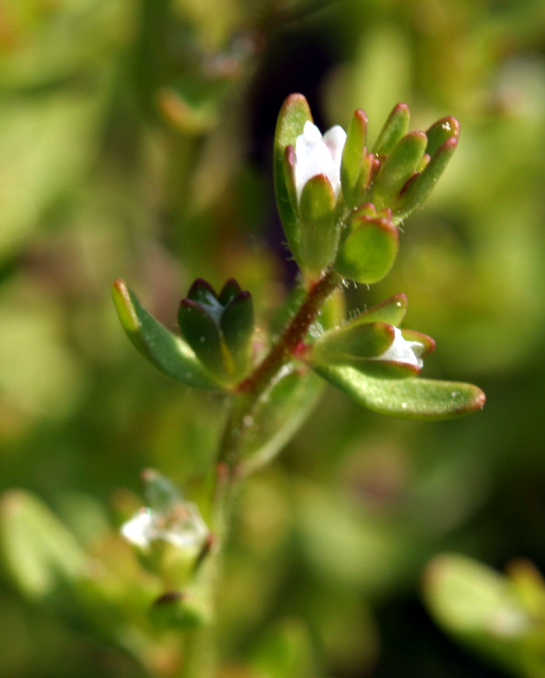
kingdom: Plantae
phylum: Tracheophyta
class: Magnoliopsida
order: Lamiales
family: Plantaginaceae
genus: Veronica
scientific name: Veronica peregrina
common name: Neckweed
